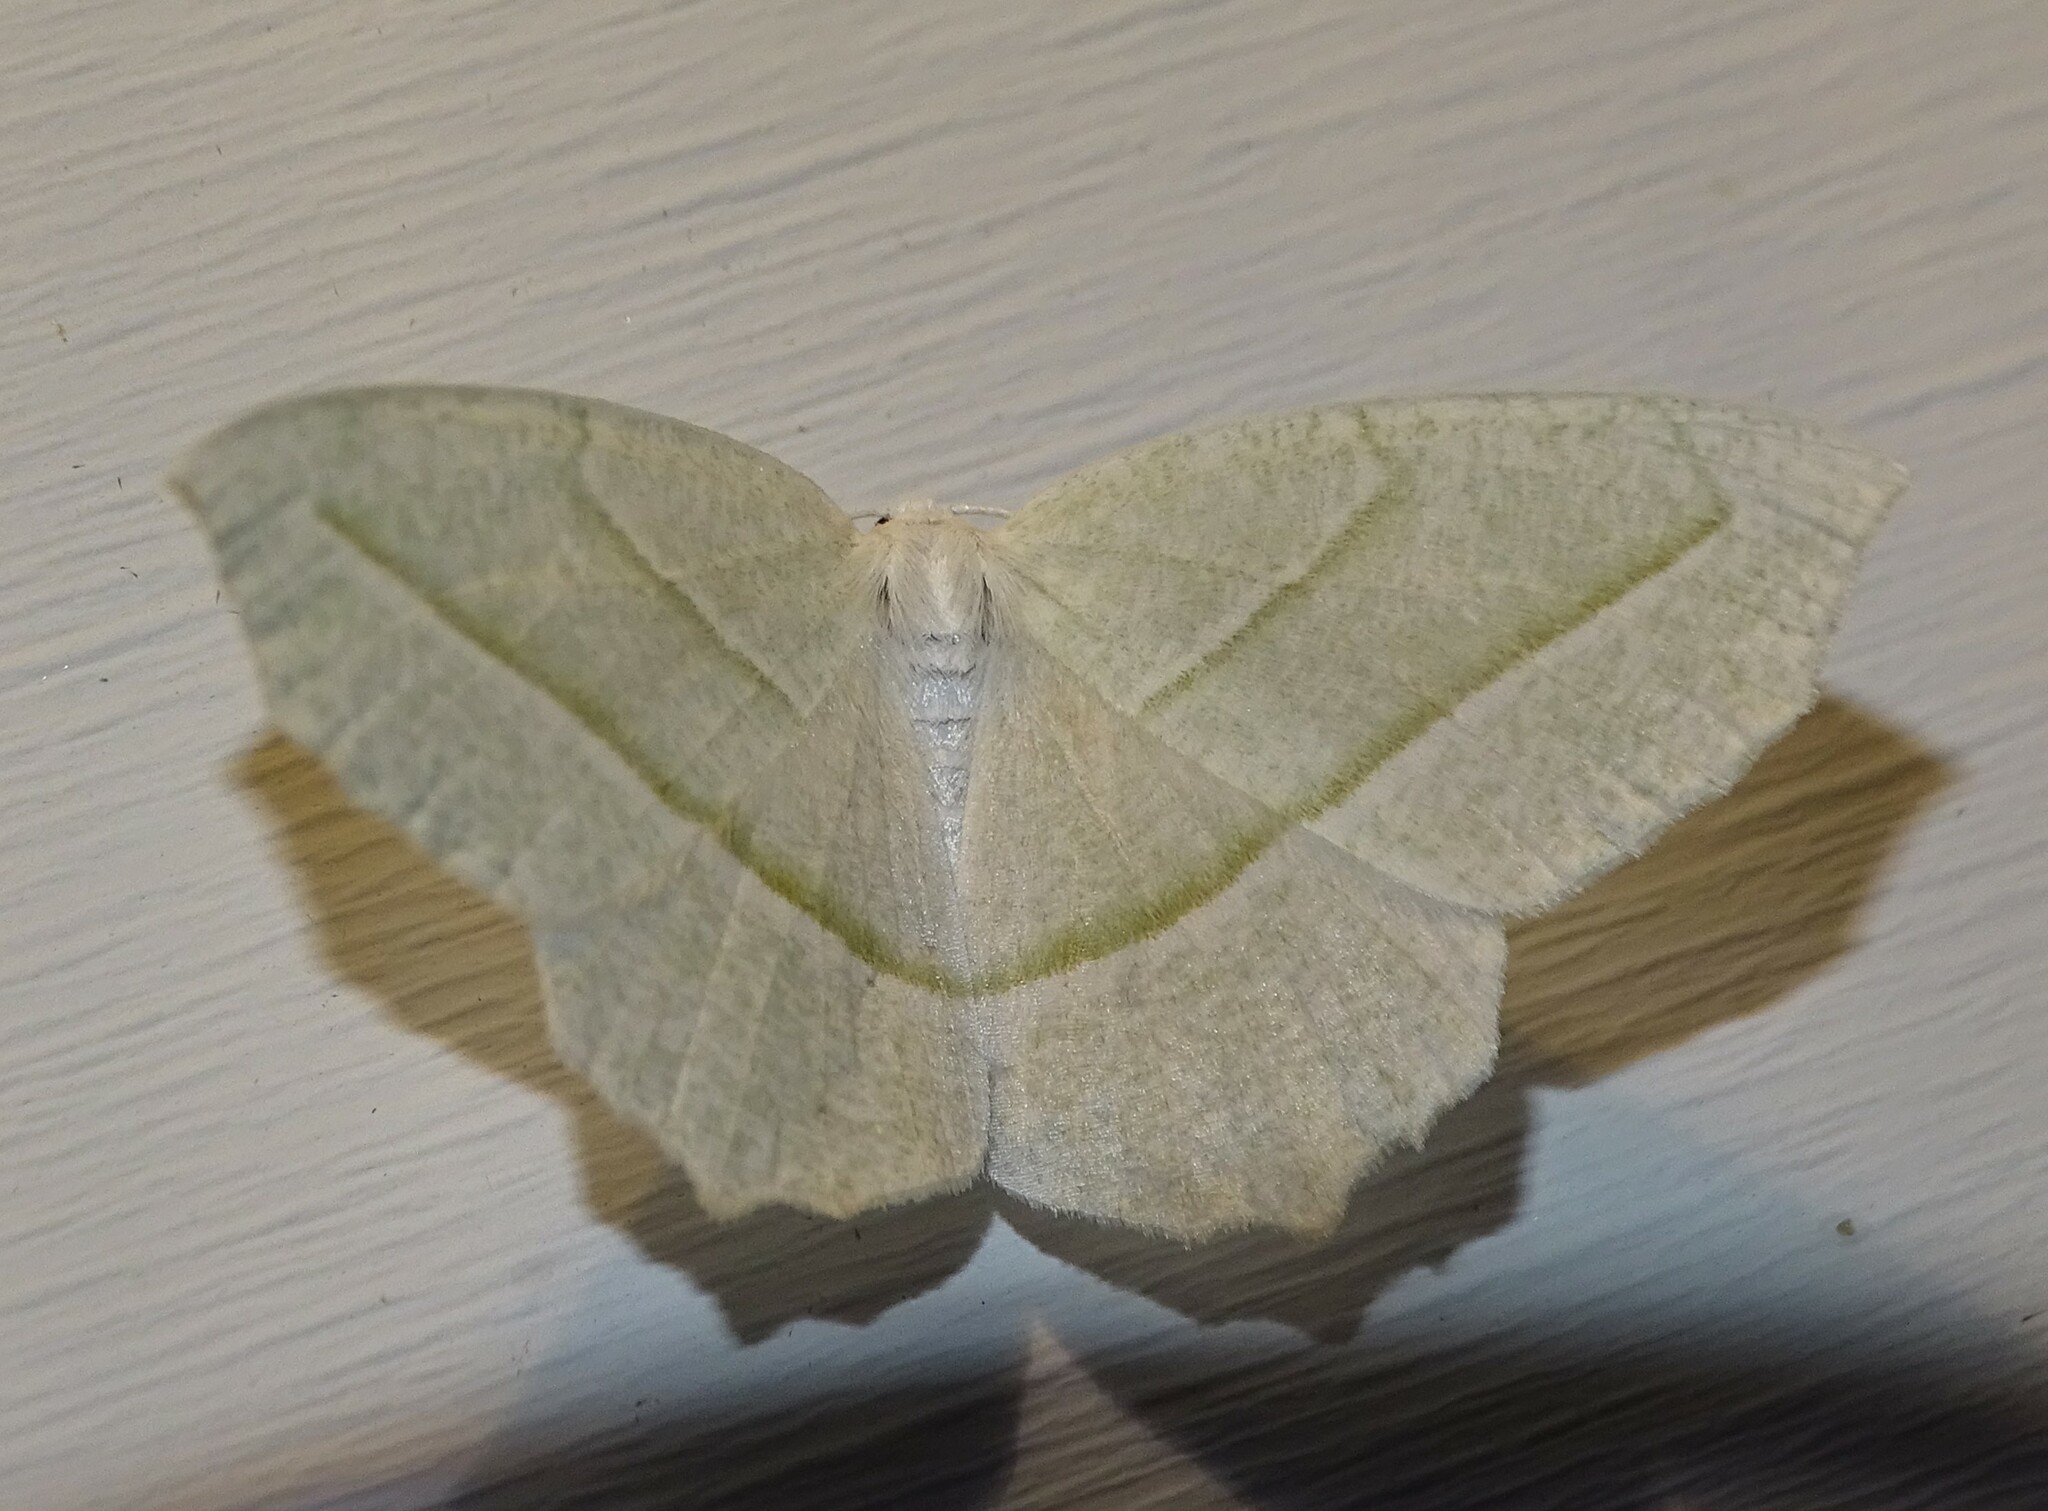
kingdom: Animalia
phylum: Arthropoda
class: Insecta
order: Lepidoptera
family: Geometridae
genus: Campaea
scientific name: Campaea perlata
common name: Fringed looper
